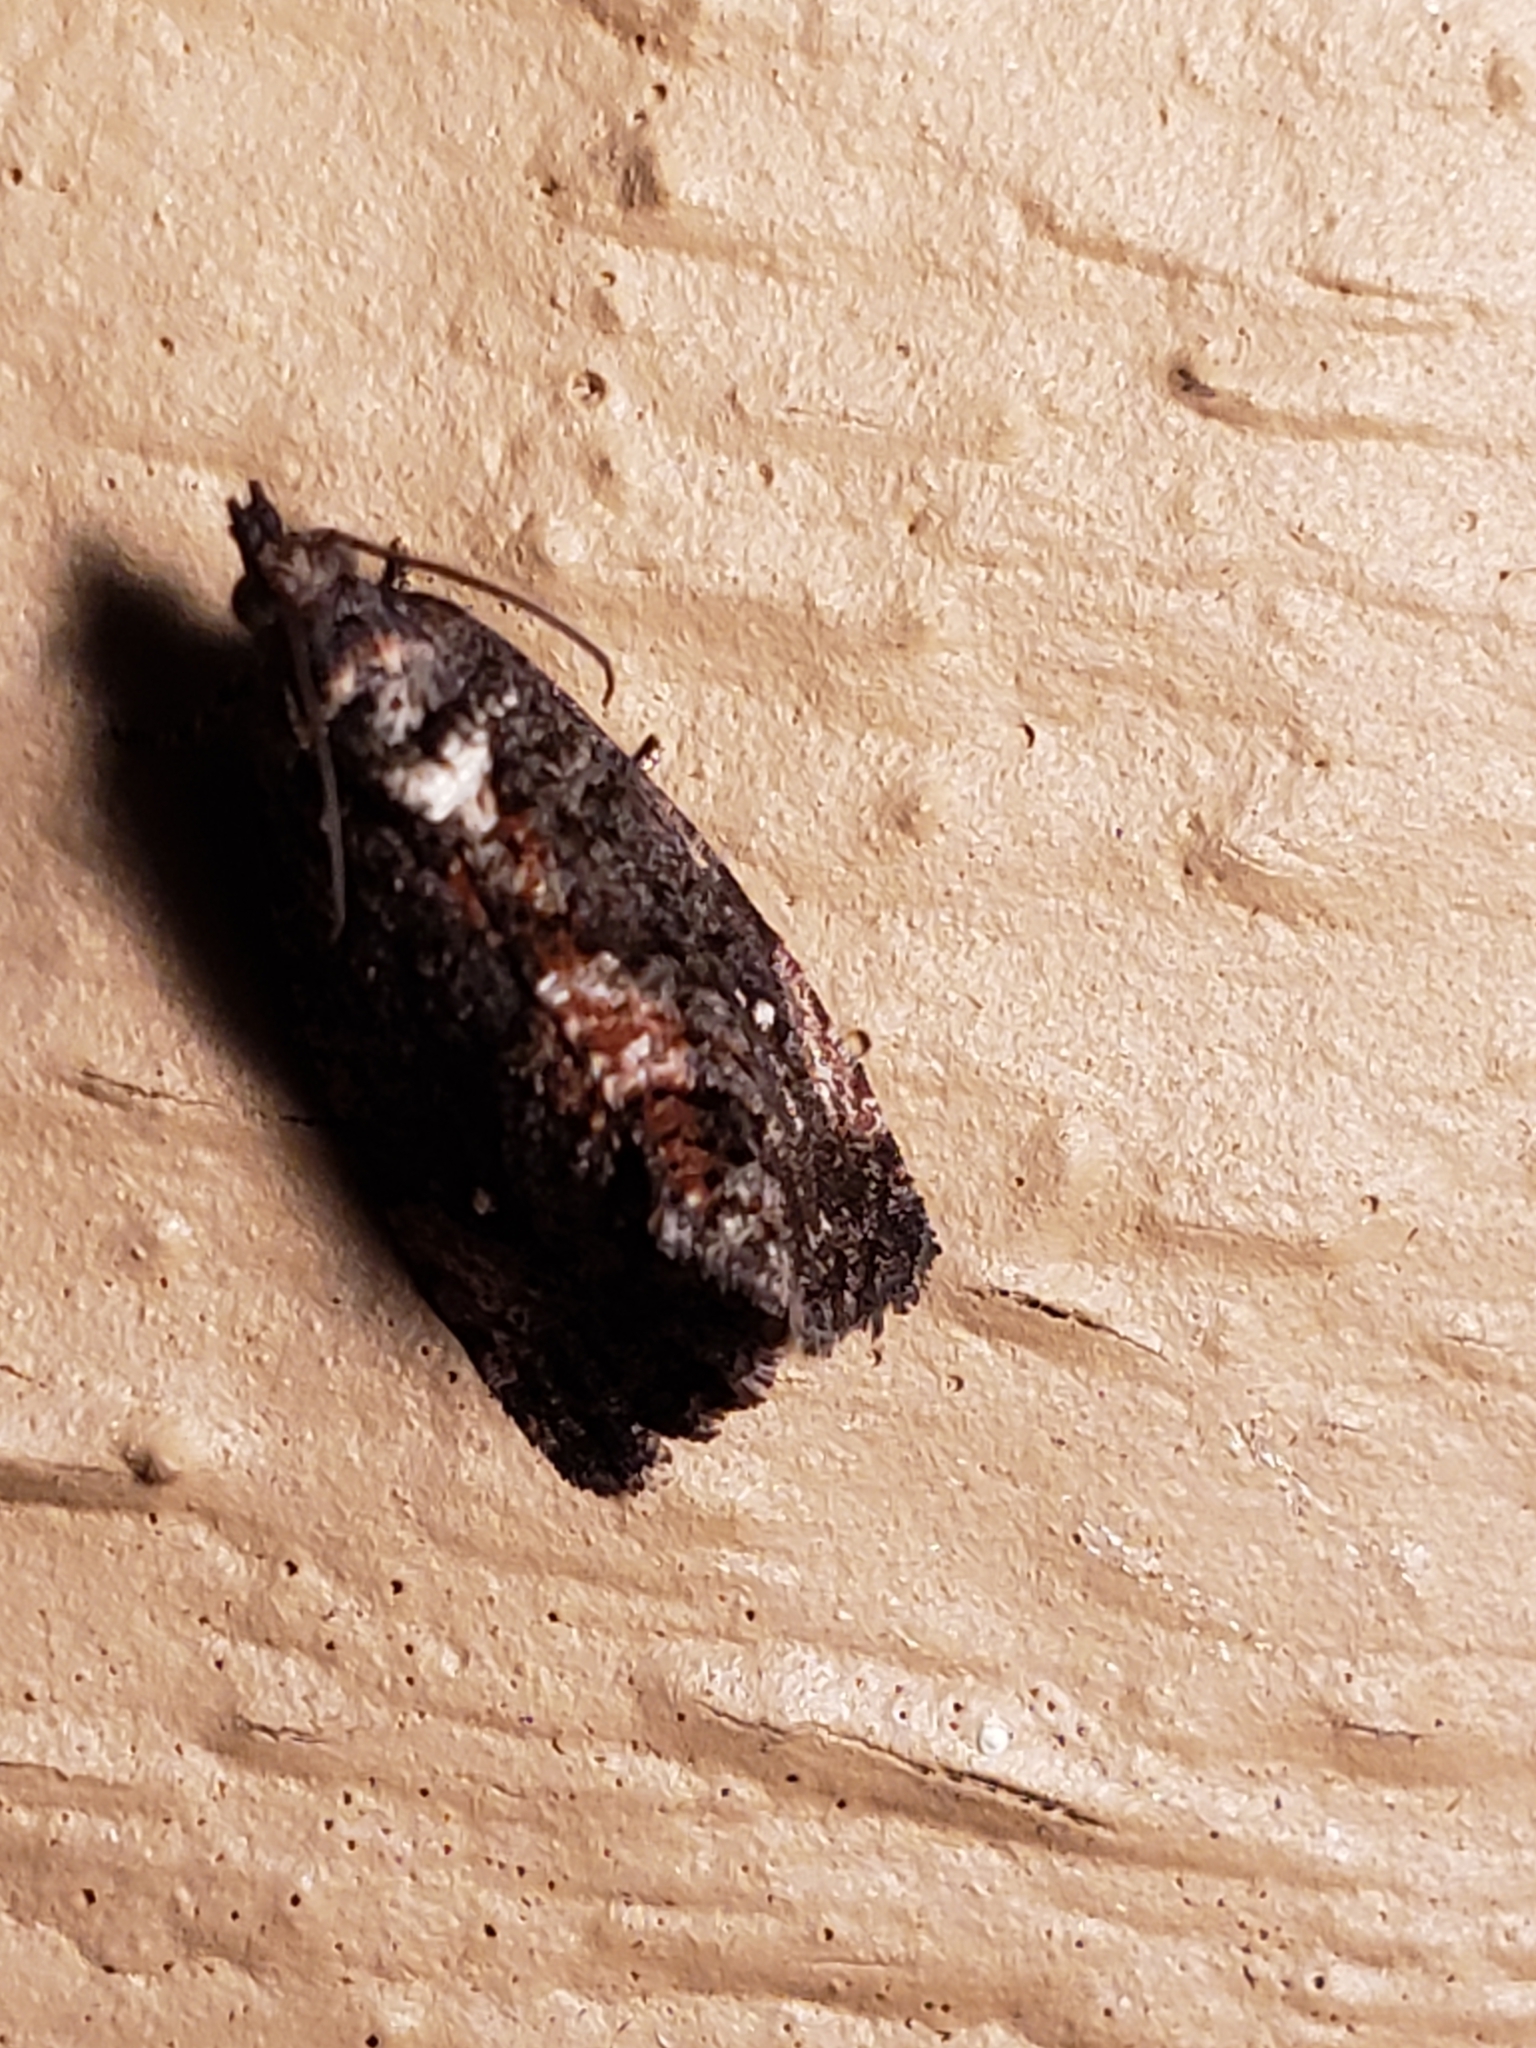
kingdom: Animalia
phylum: Arthropoda
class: Insecta
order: Lepidoptera
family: Tortricidae
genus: Gymnandrosoma
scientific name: Gymnandrosoma punctidiscanum
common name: Dotted ecdytolopha moth
